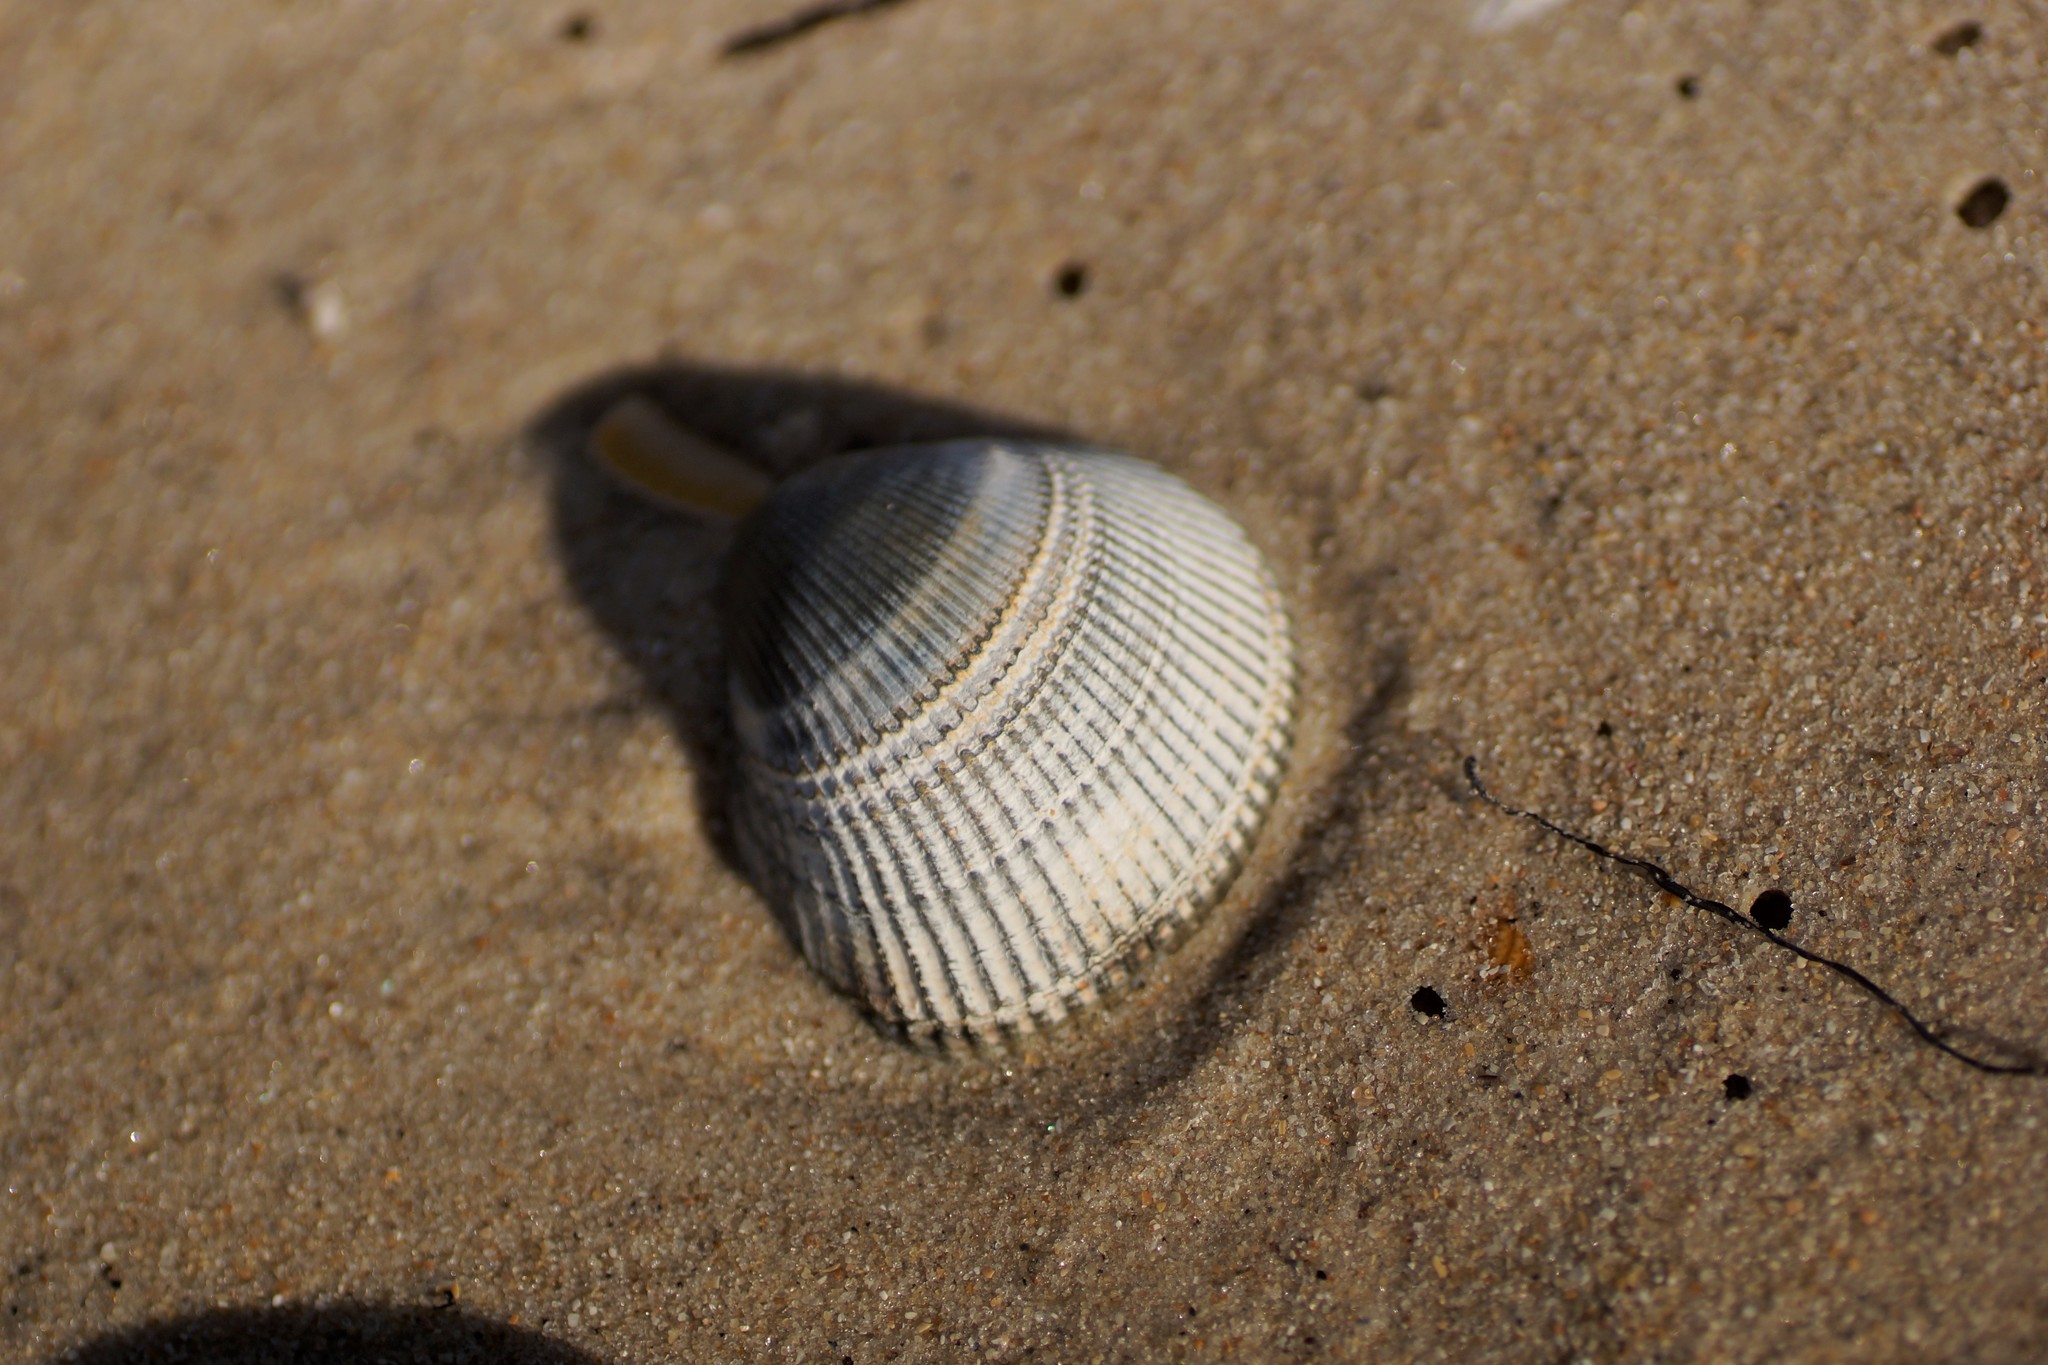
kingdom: Animalia
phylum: Mollusca
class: Bivalvia
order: Cardiida
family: Cardiidae
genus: Fulvia
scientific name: Fulvia tenuicostata
